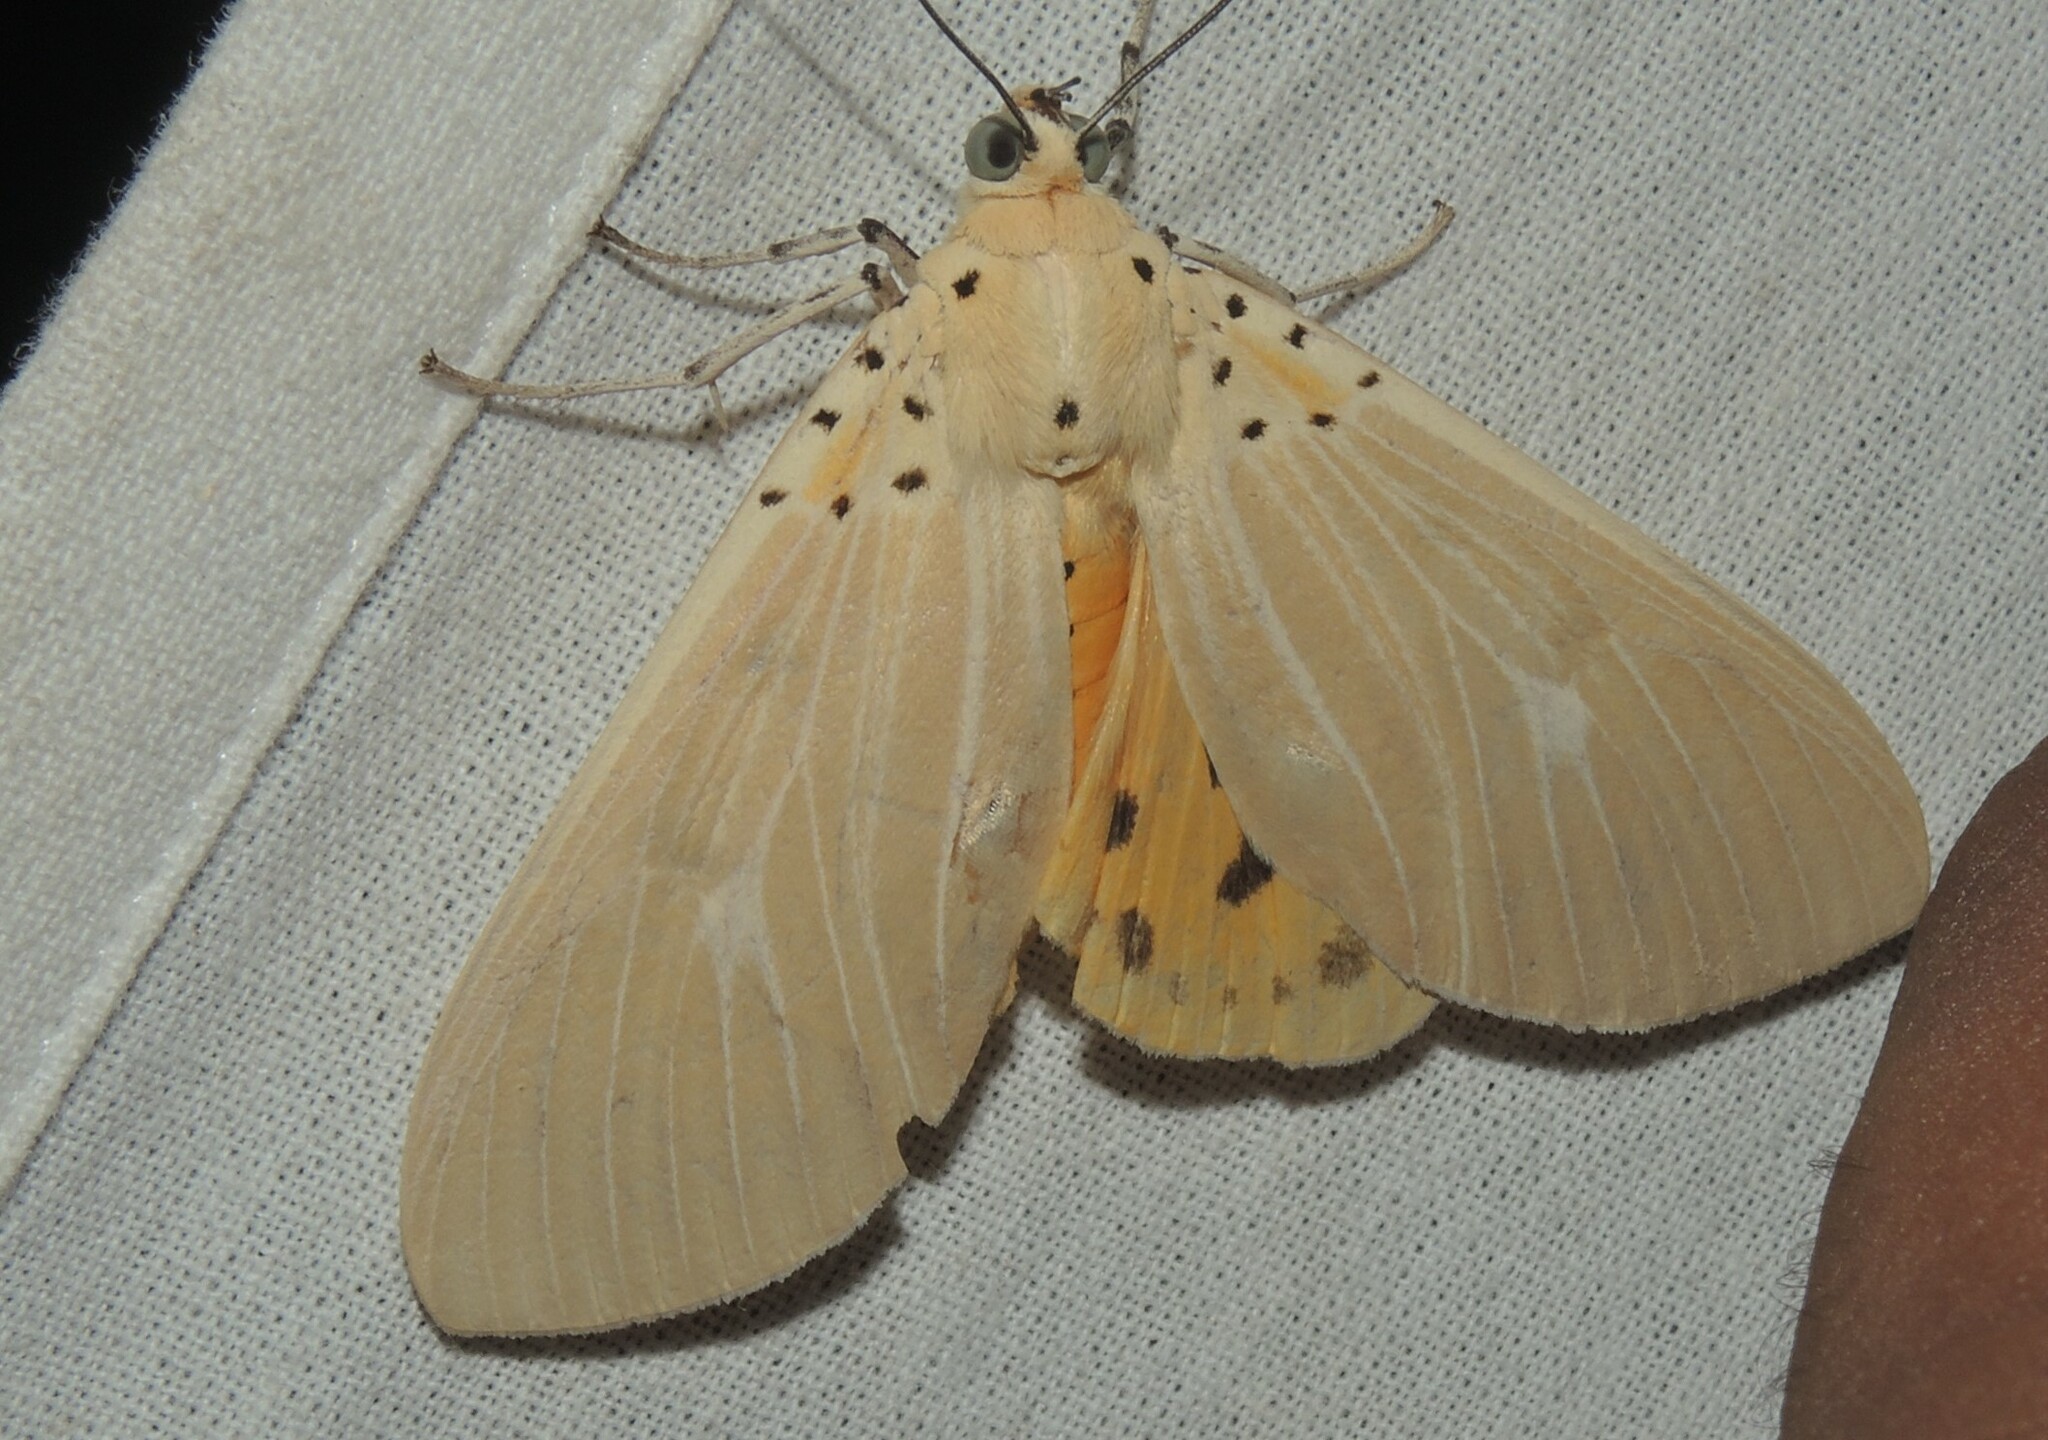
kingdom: Animalia
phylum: Arthropoda
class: Insecta
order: Lepidoptera
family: Erebidae
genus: Asota
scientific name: Asota producta
